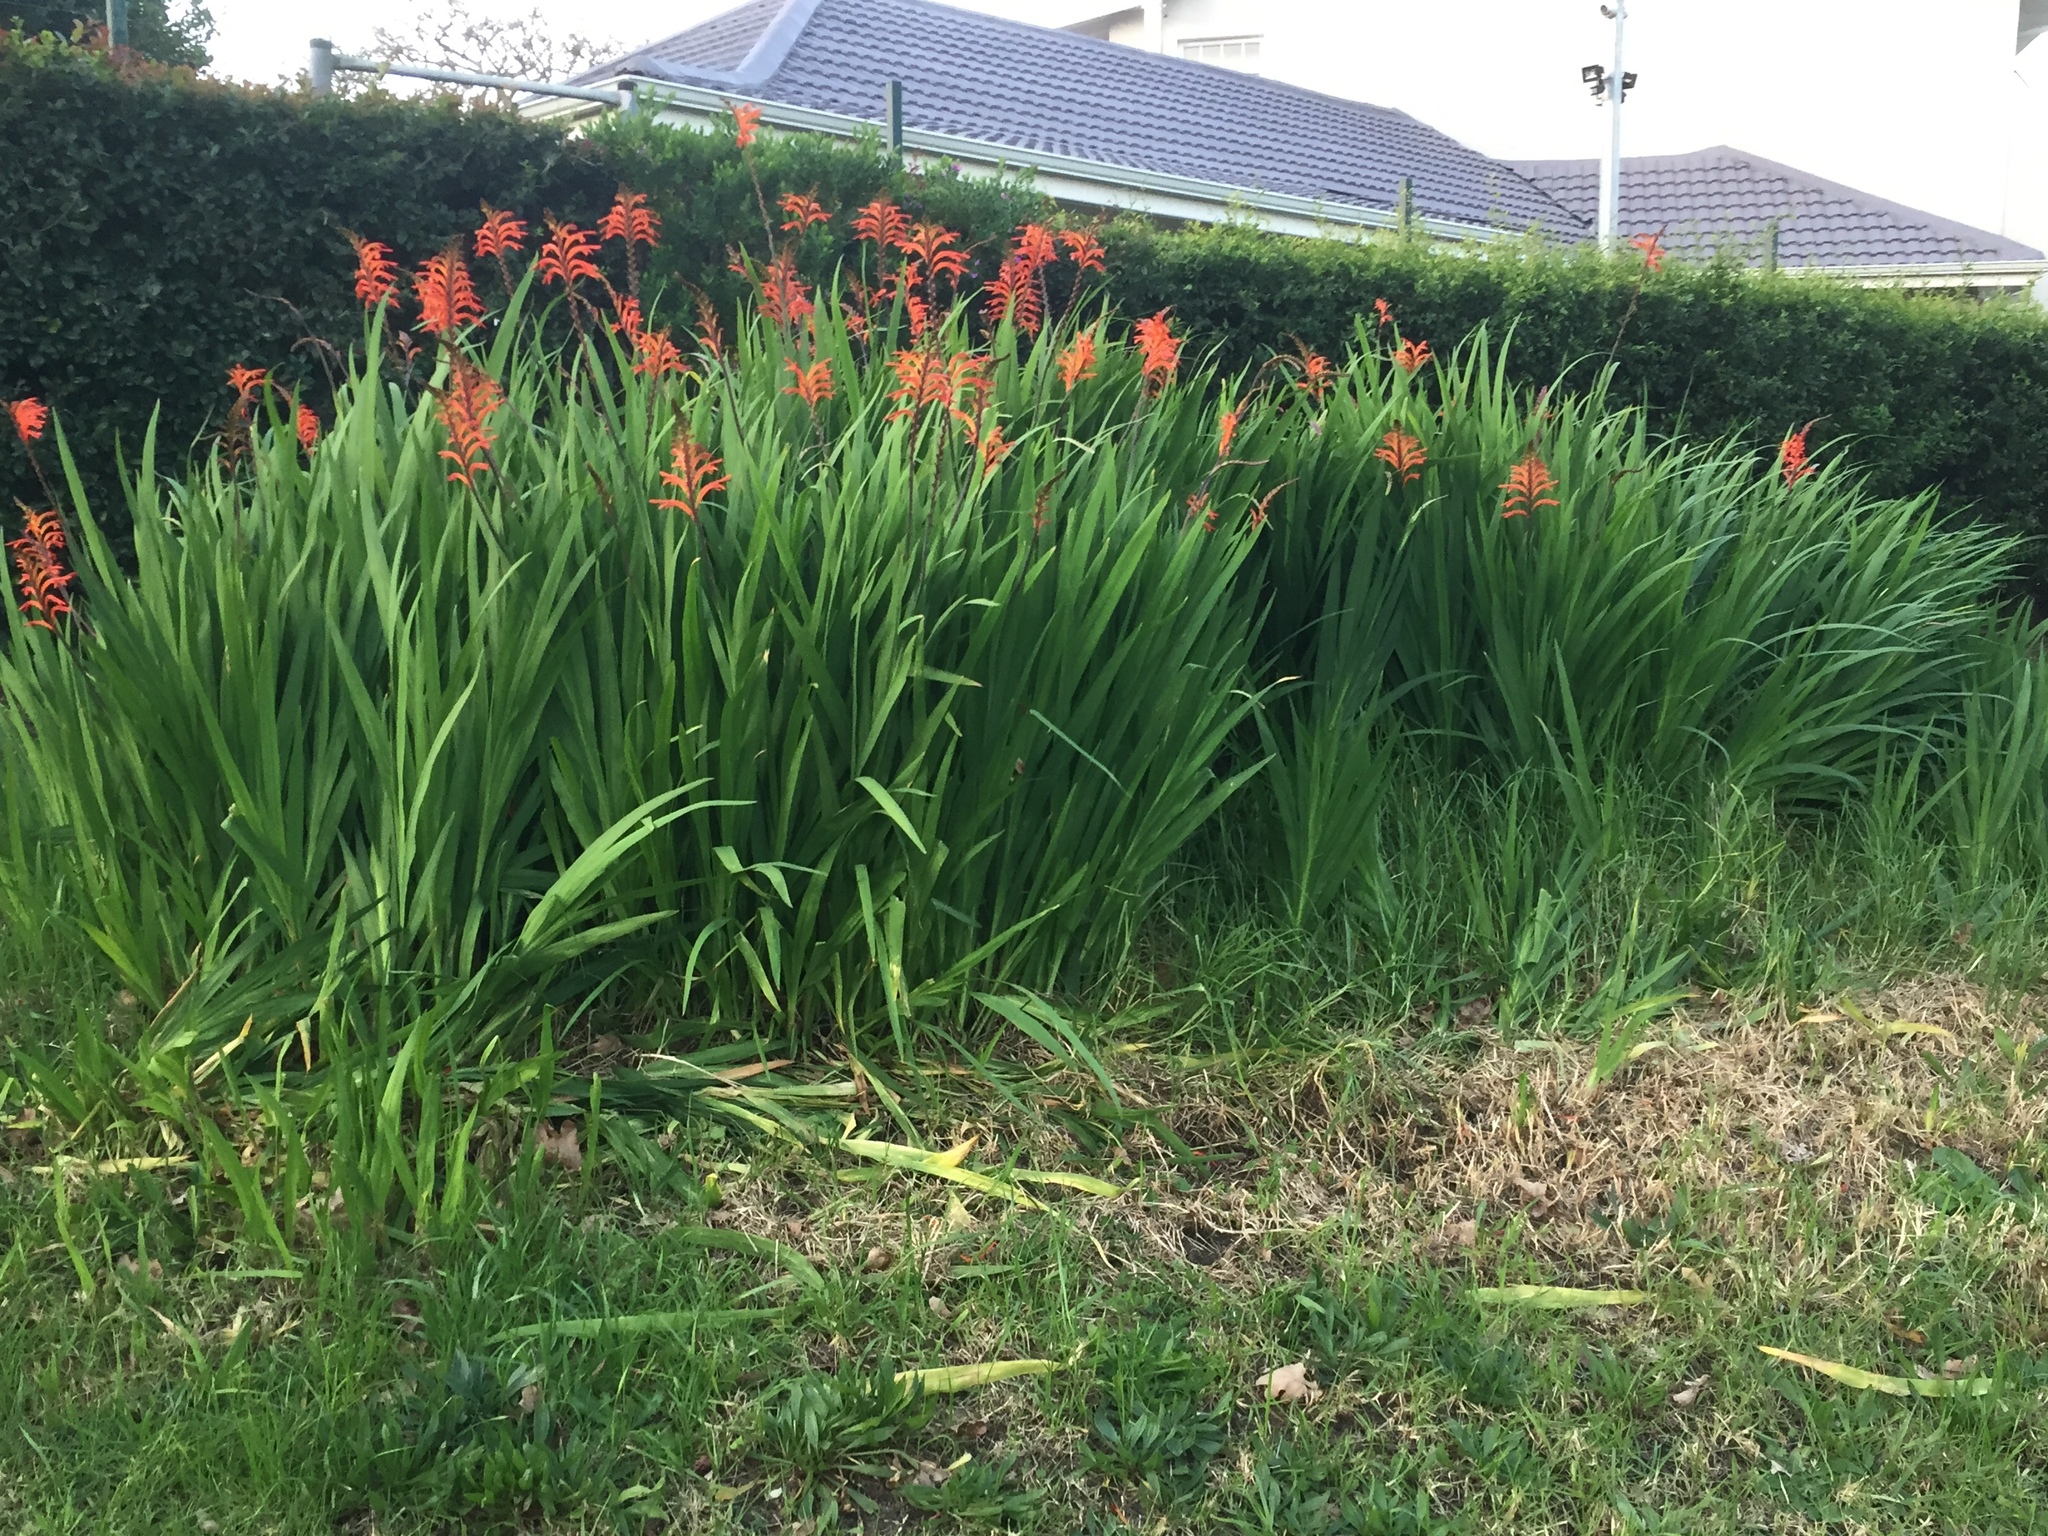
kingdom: Plantae
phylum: Tracheophyta
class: Liliopsida
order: Asparagales
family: Iridaceae
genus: Chasmanthe
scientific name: Chasmanthe floribunda
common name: African cornflag
